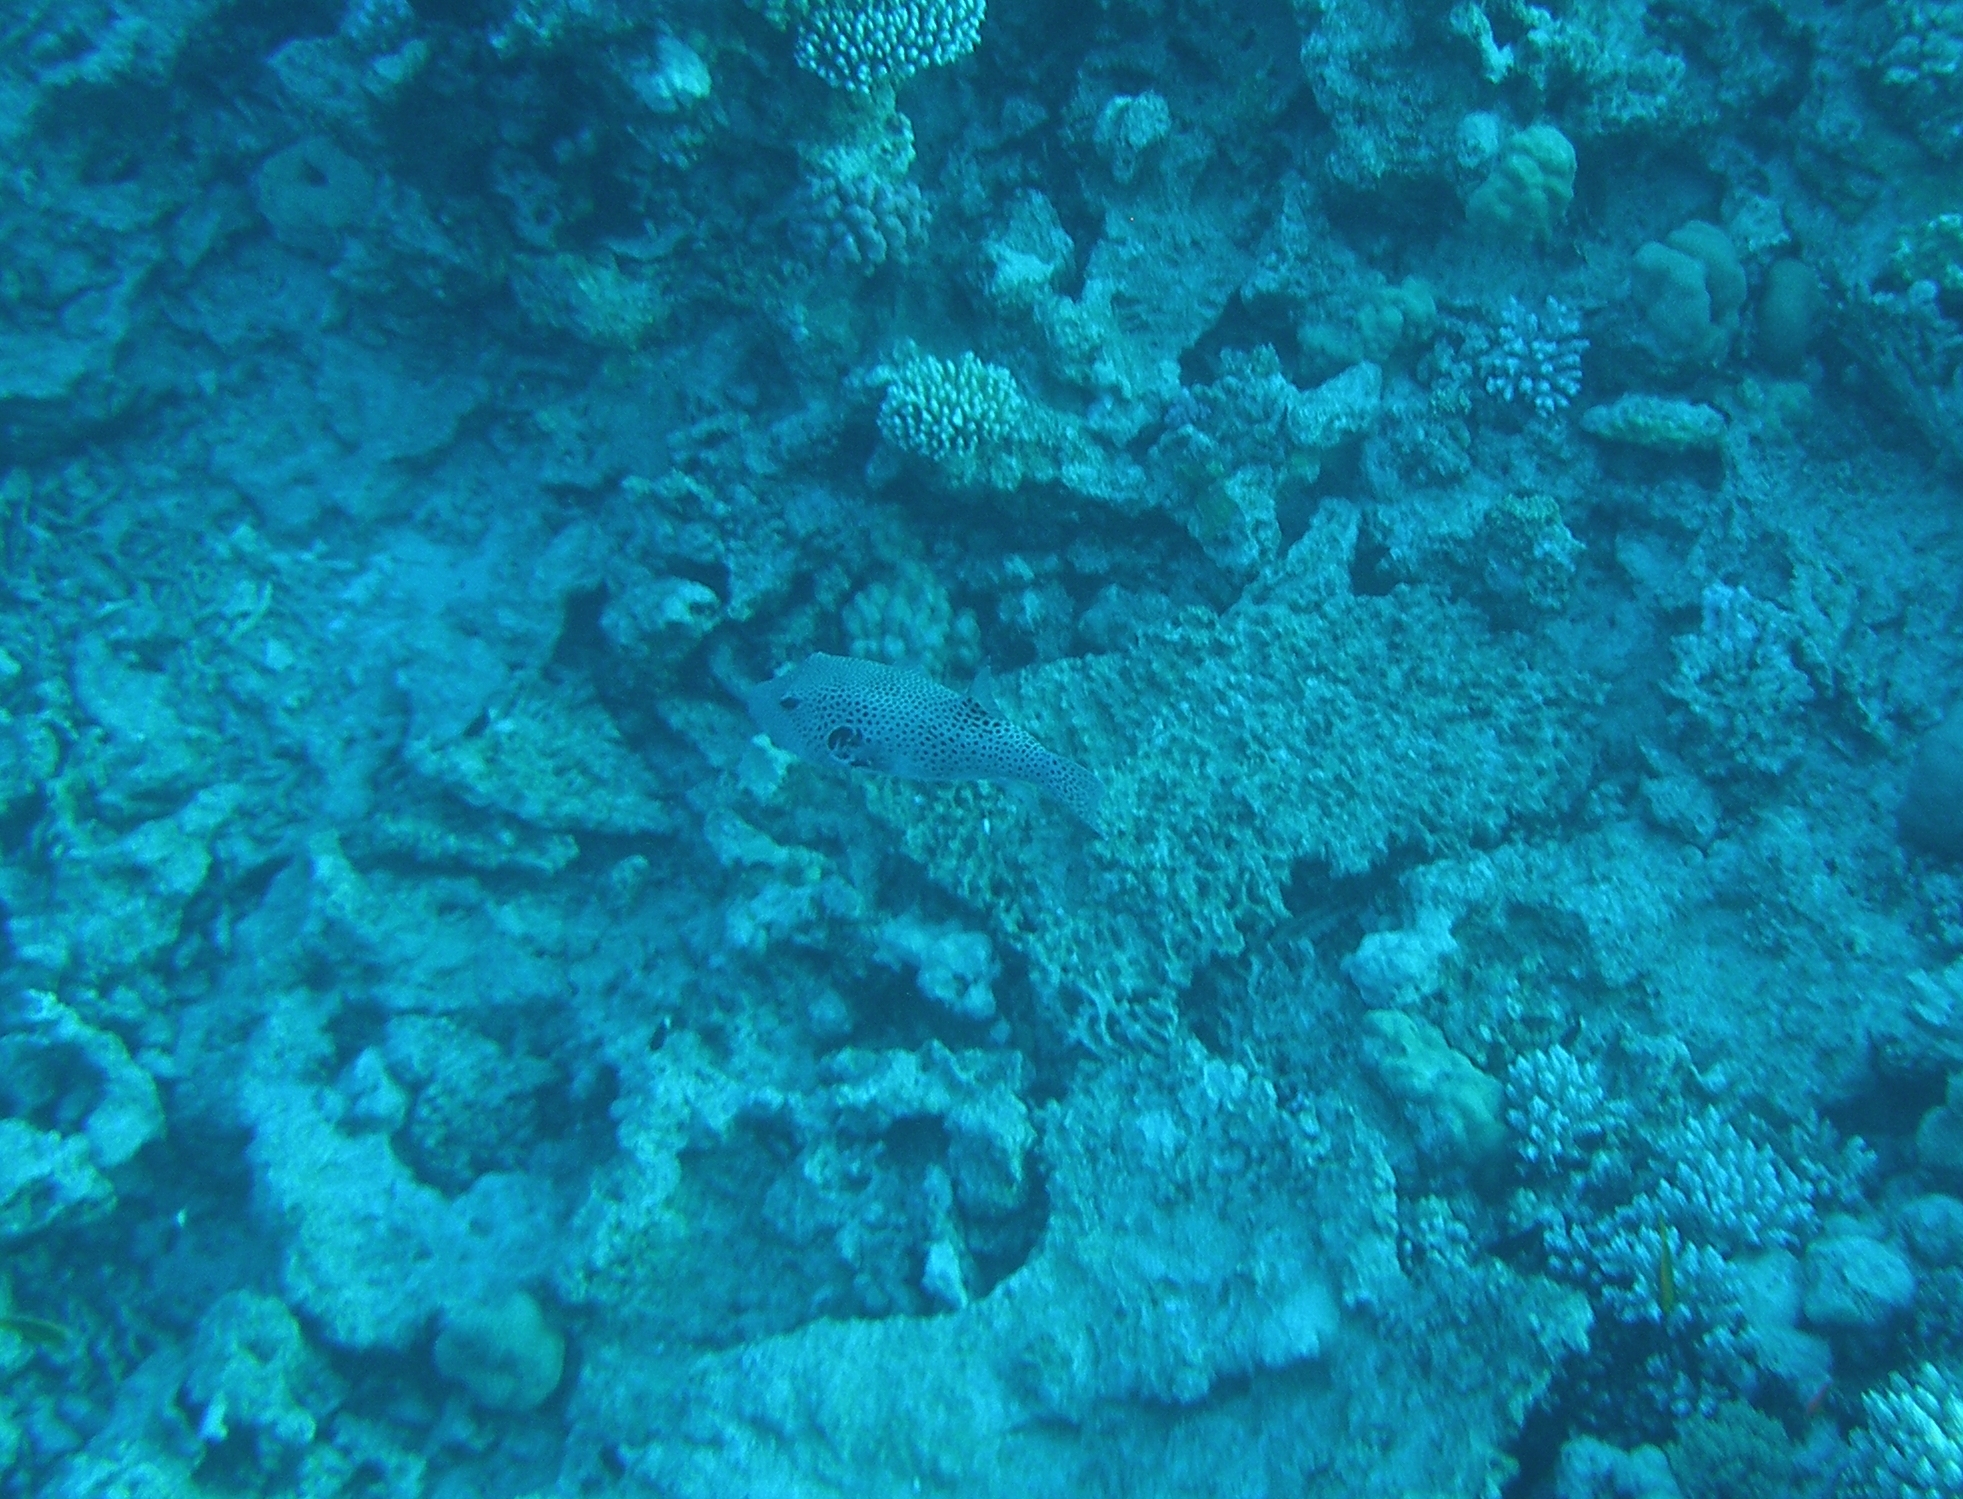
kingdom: Animalia
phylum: Chordata
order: Tetraodontiformes
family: Tetraodontidae
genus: Arothron
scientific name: Arothron stellatus
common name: Star blaasop
